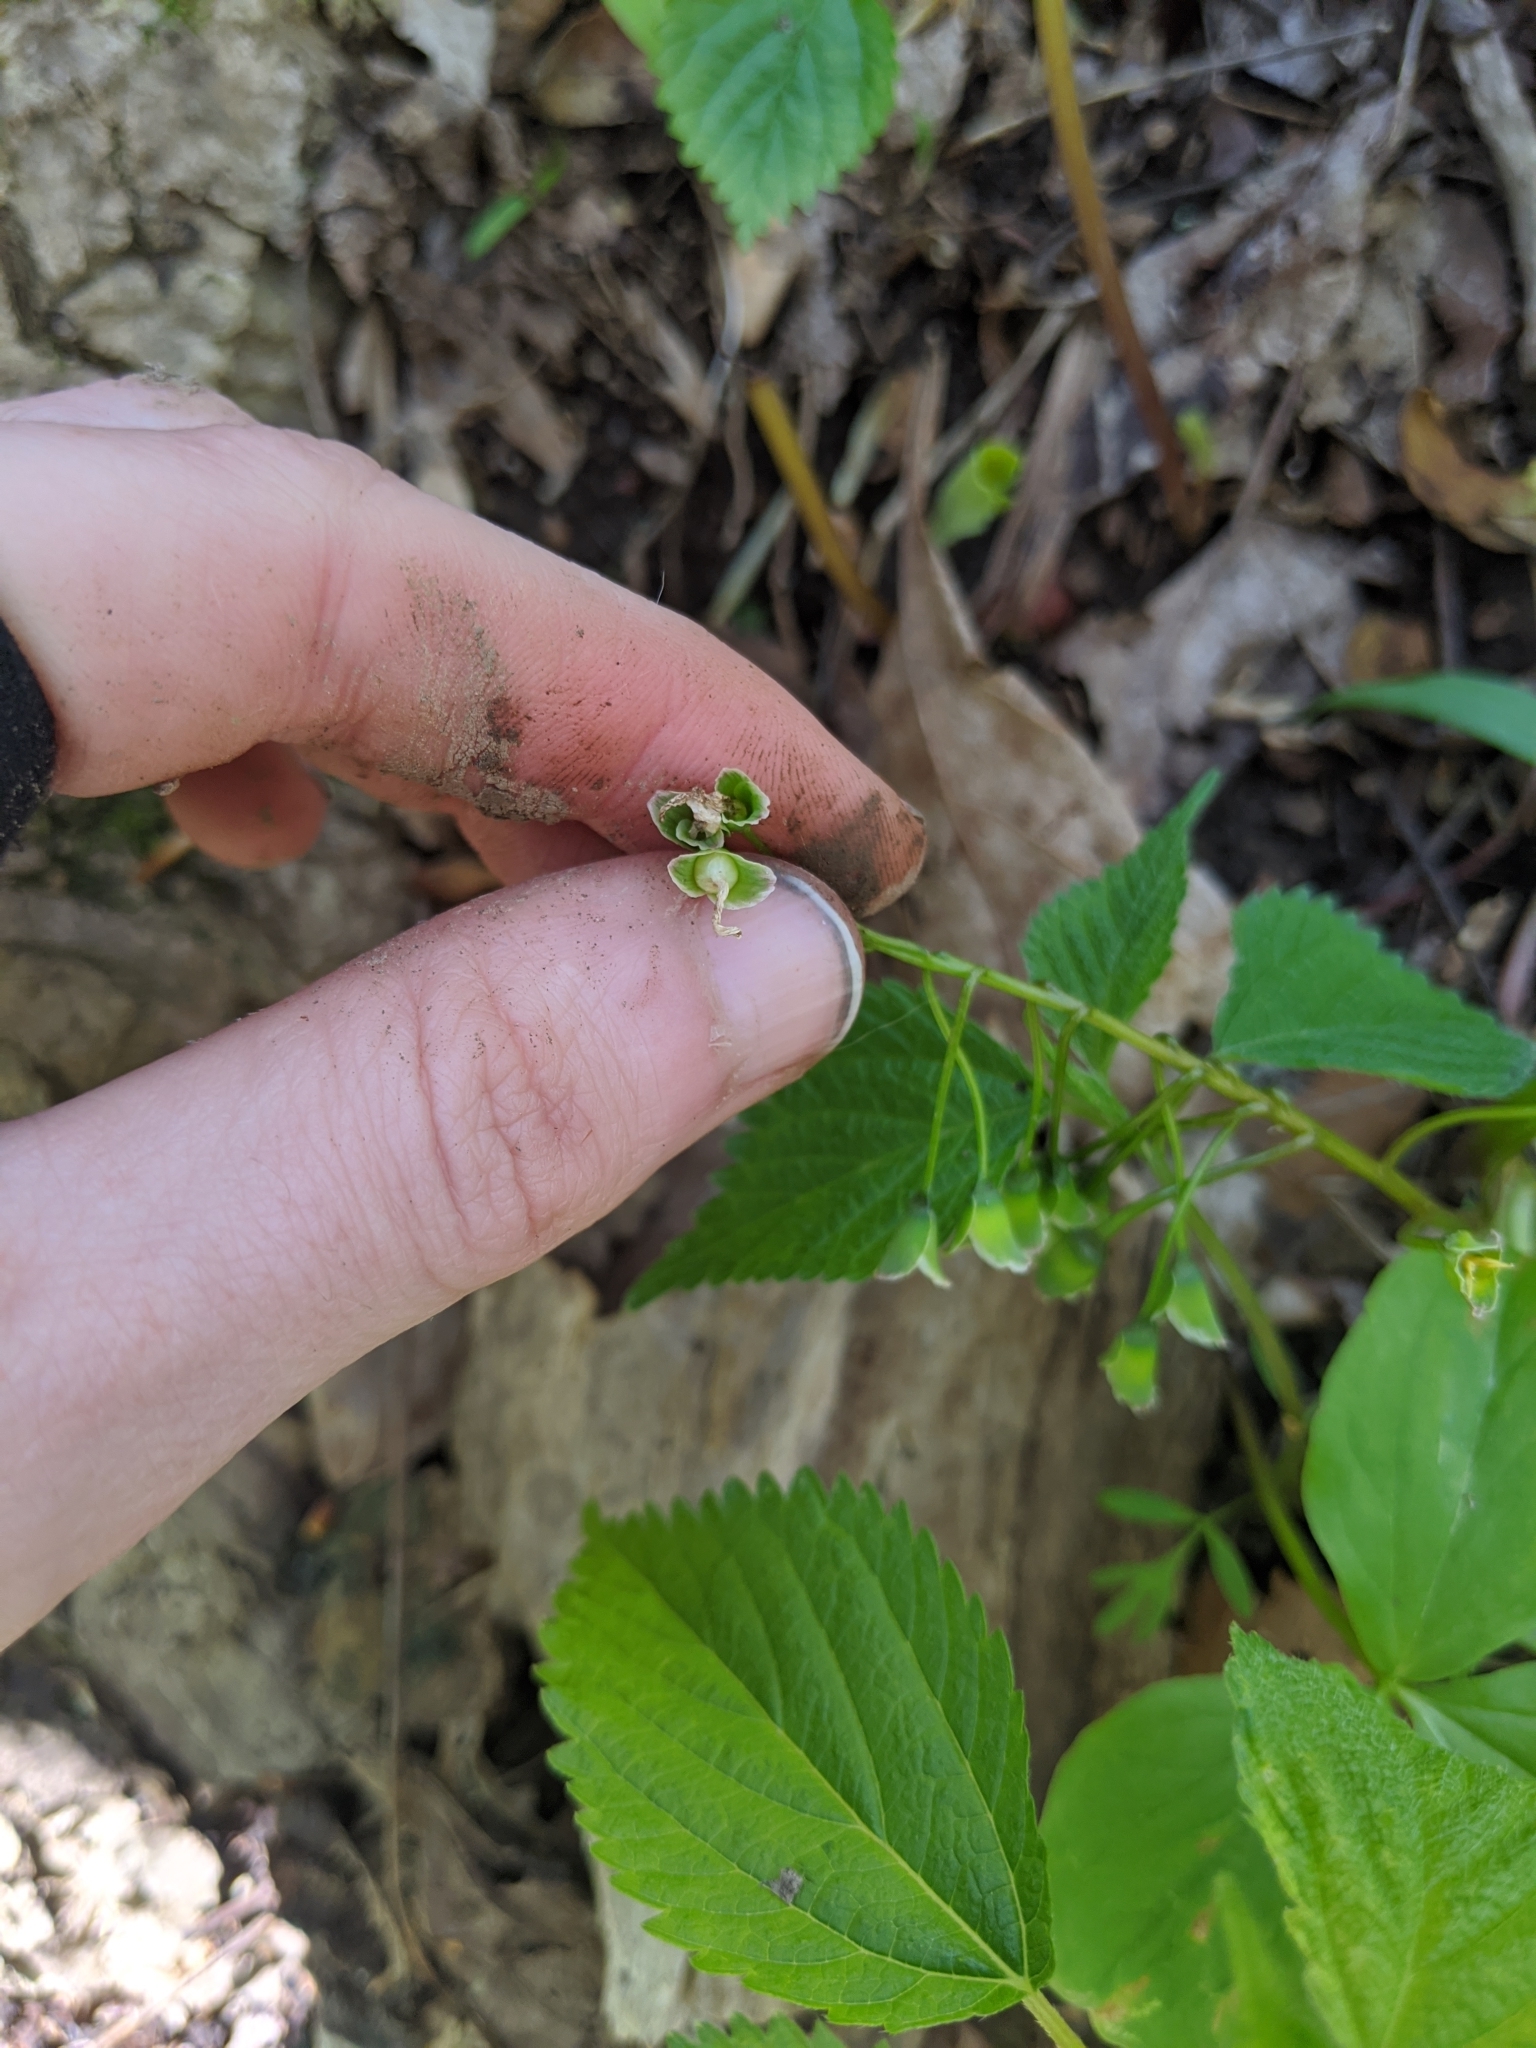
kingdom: Plantae
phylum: Tracheophyta
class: Magnoliopsida
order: Caryophyllales
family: Montiaceae
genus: Claytonia
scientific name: Claytonia virginica
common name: Virginia springbeauty
